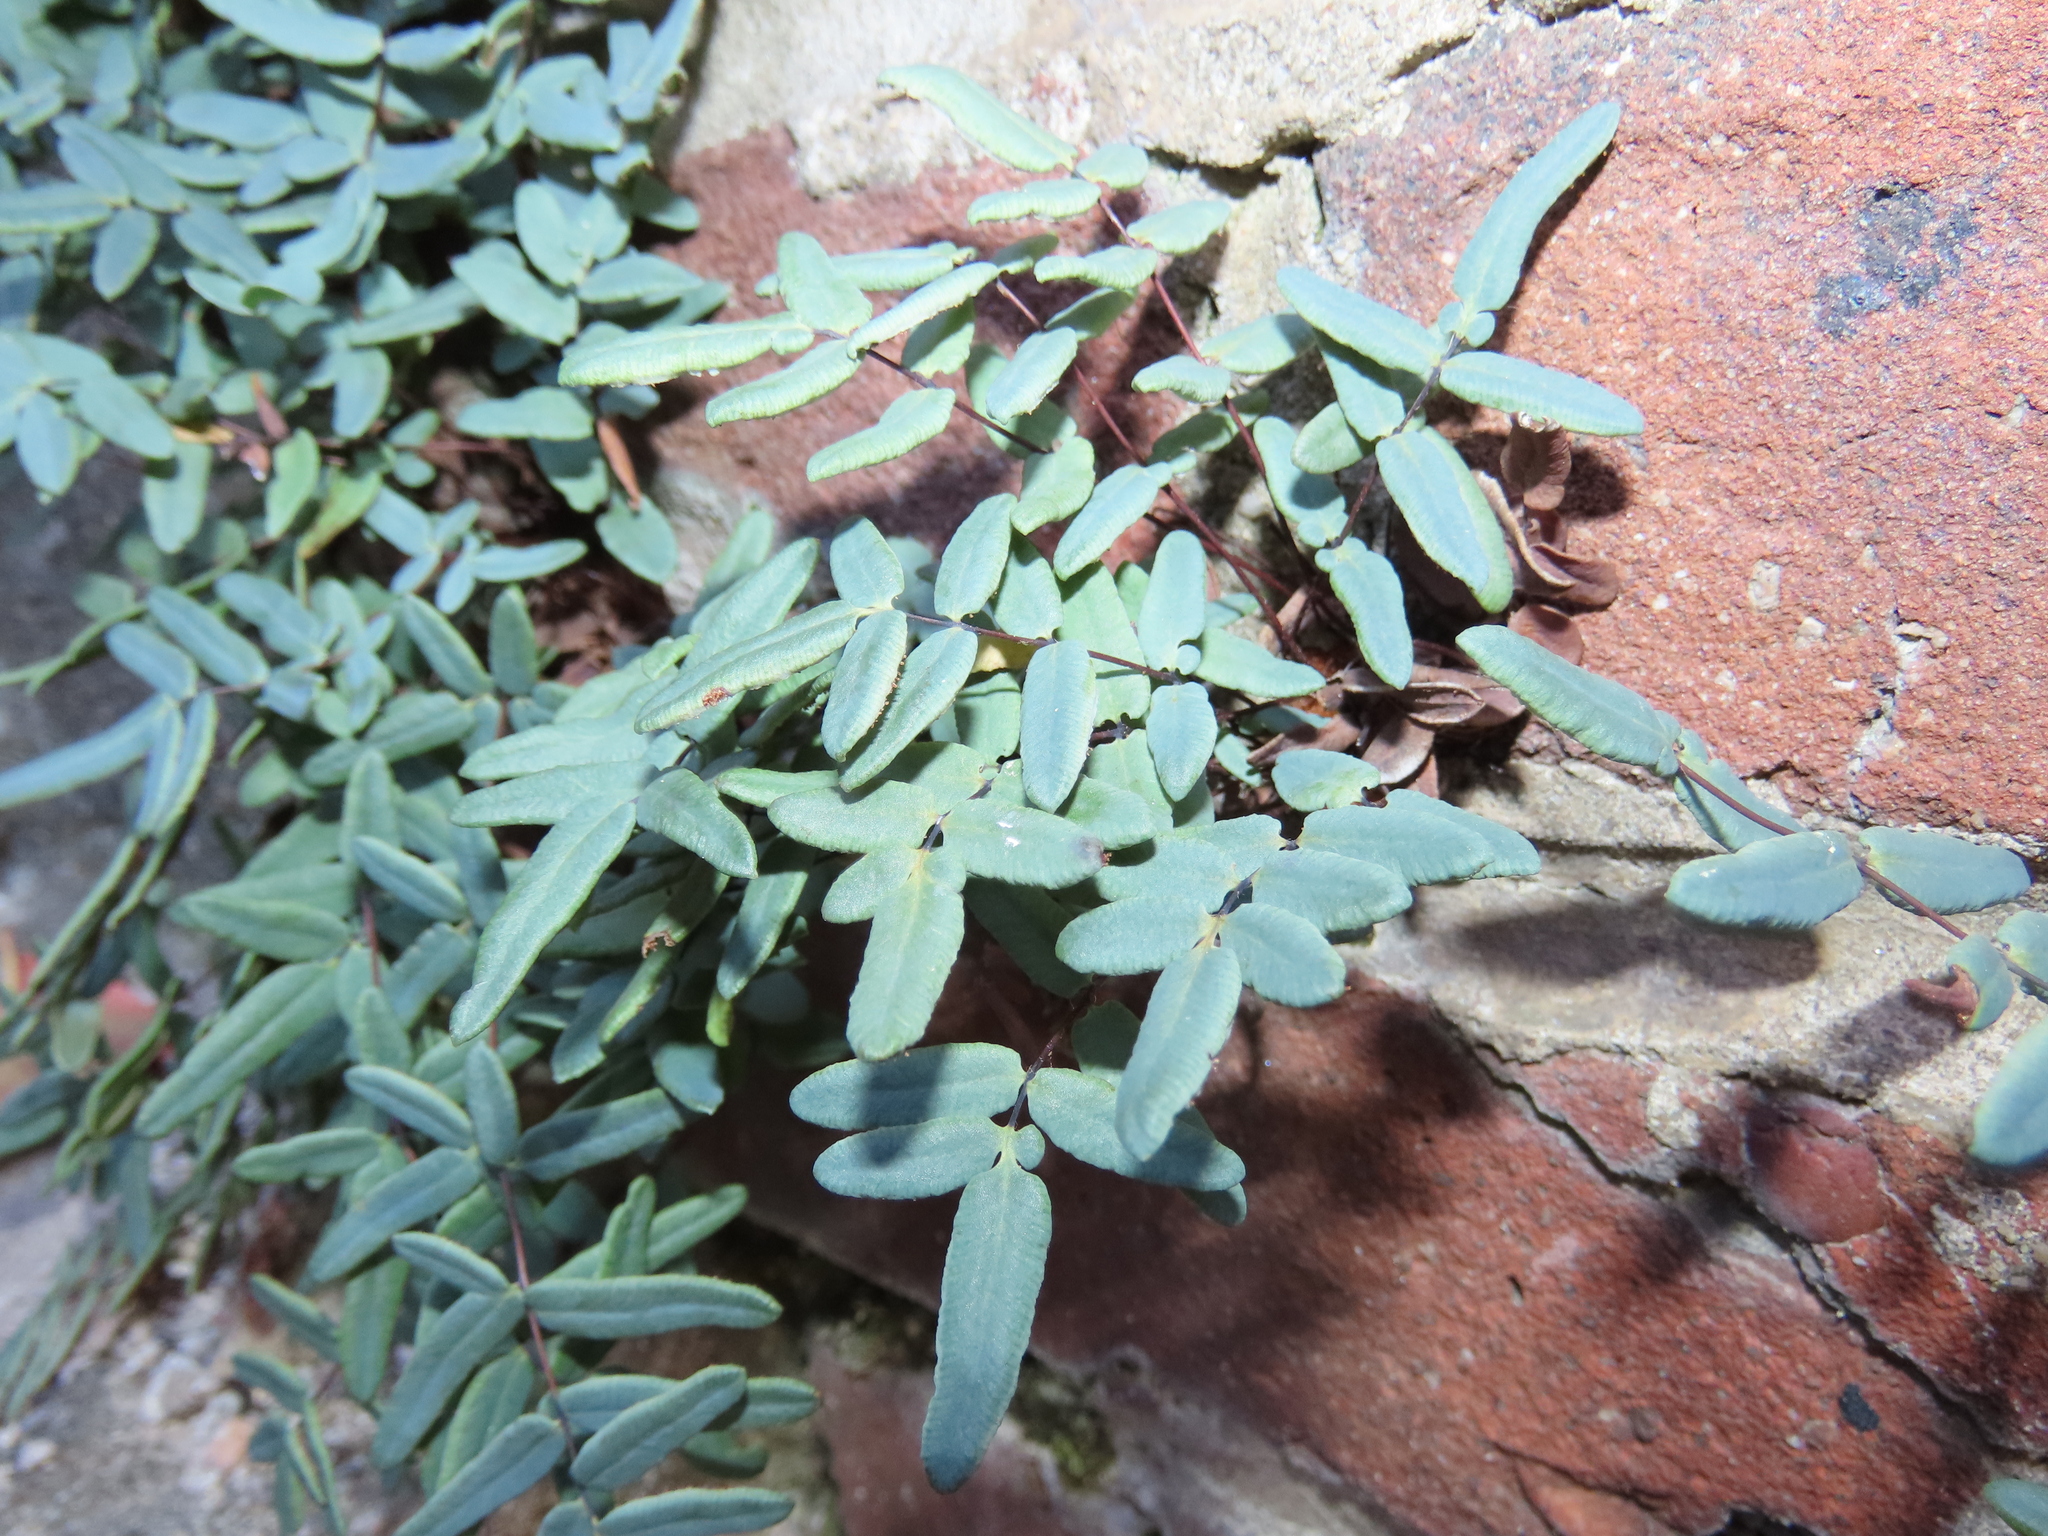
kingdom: Plantae
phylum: Tracheophyta
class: Polypodiopsida
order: Polypodiales
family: Pteridaceae
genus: Pellaea
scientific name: Pellaea glabella
